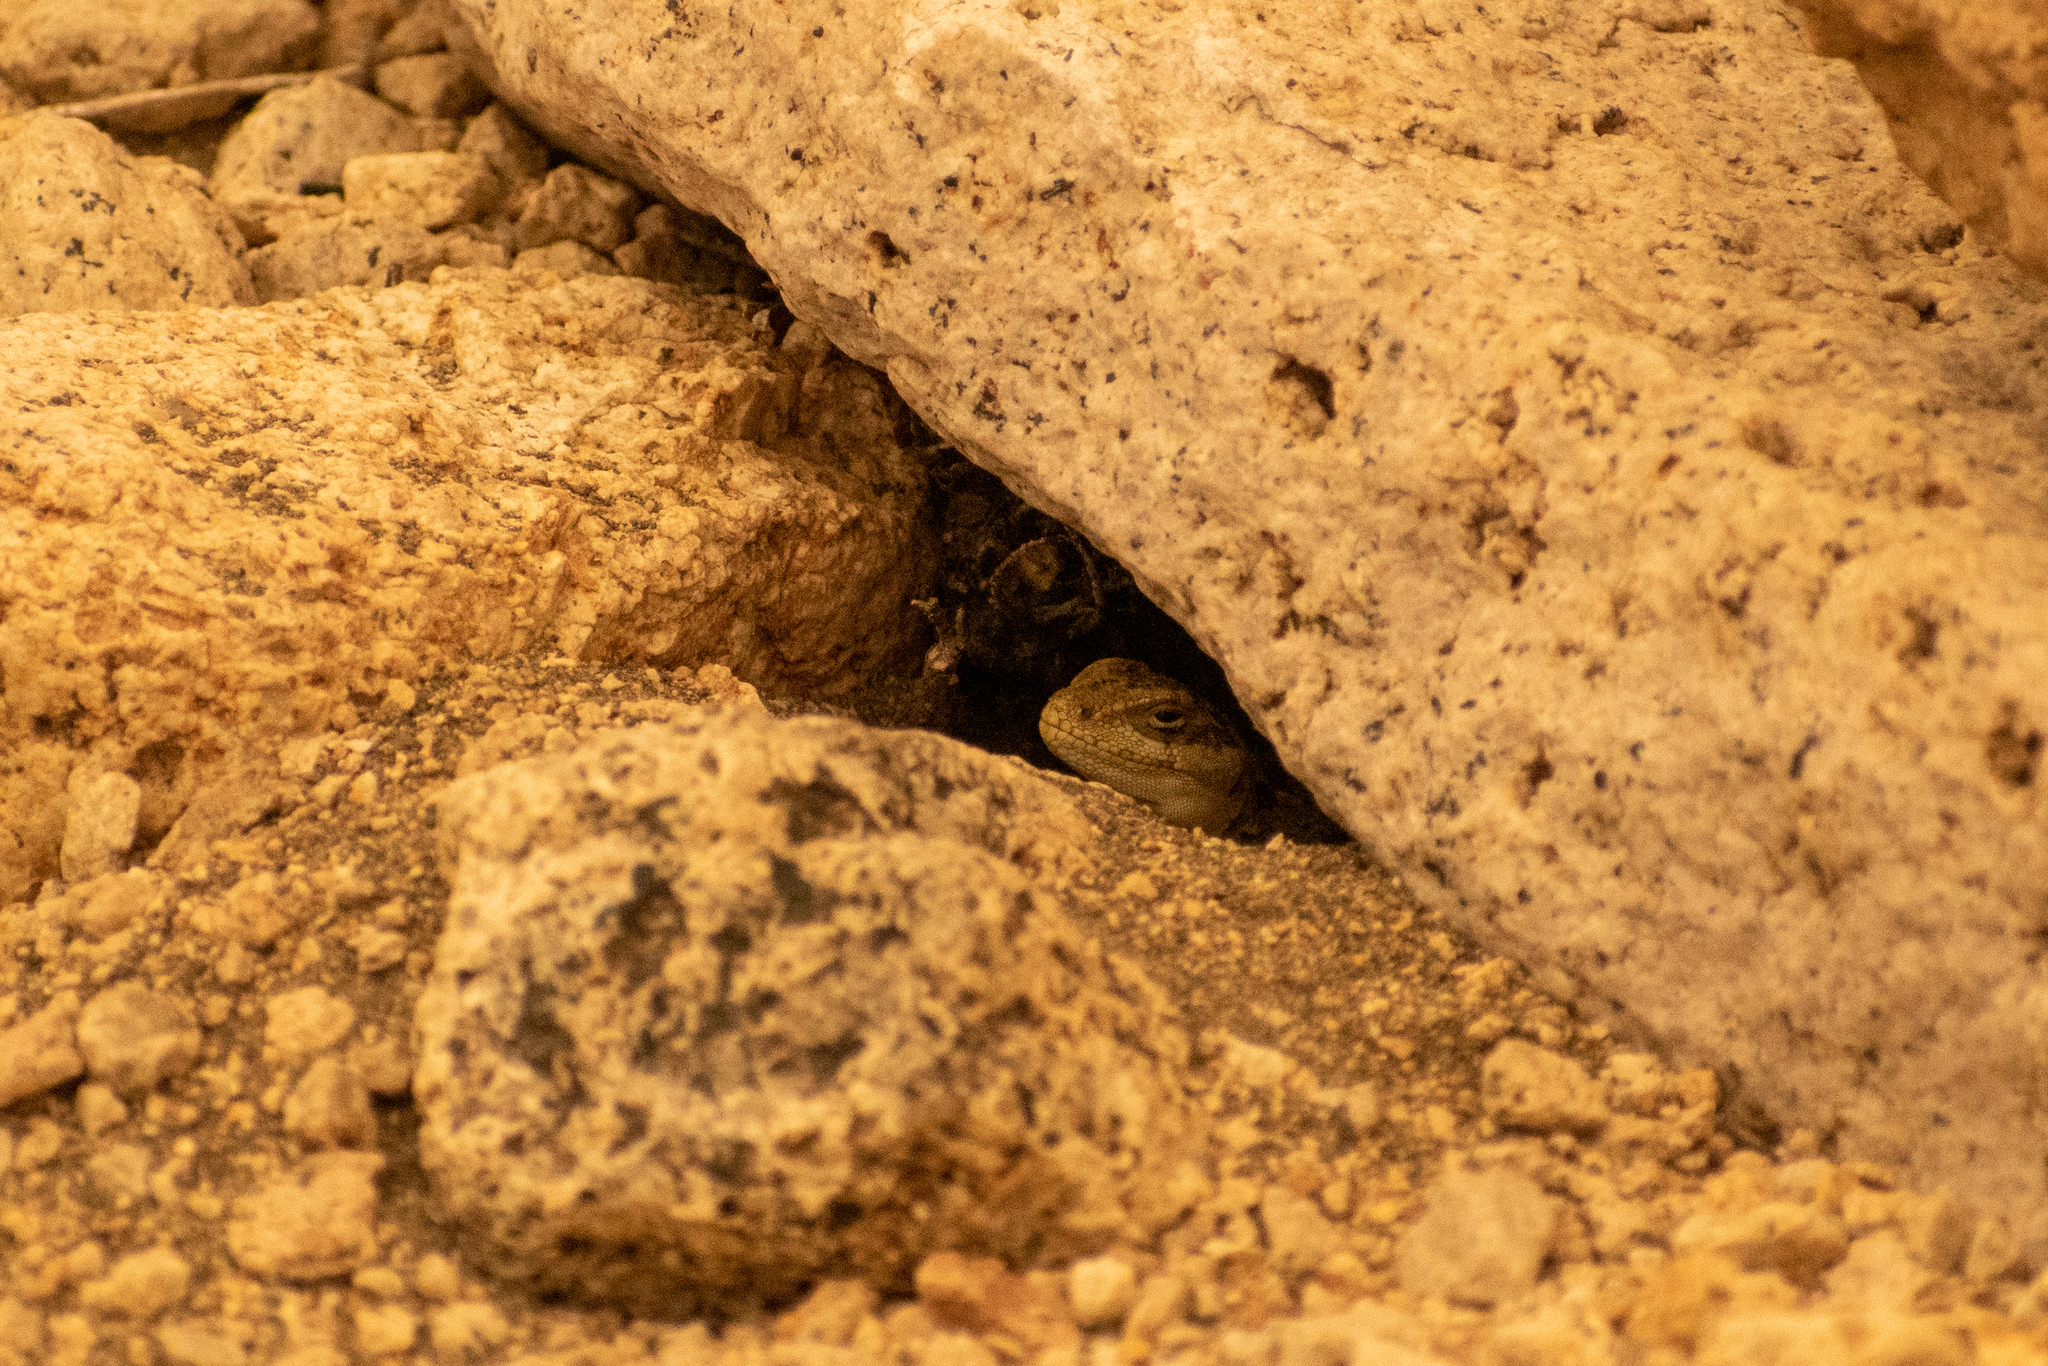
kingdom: Animalia
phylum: Chordata
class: Squamata
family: Leiosauridae
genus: Diplolaemus
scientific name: Diplolaemus sexcinctus
